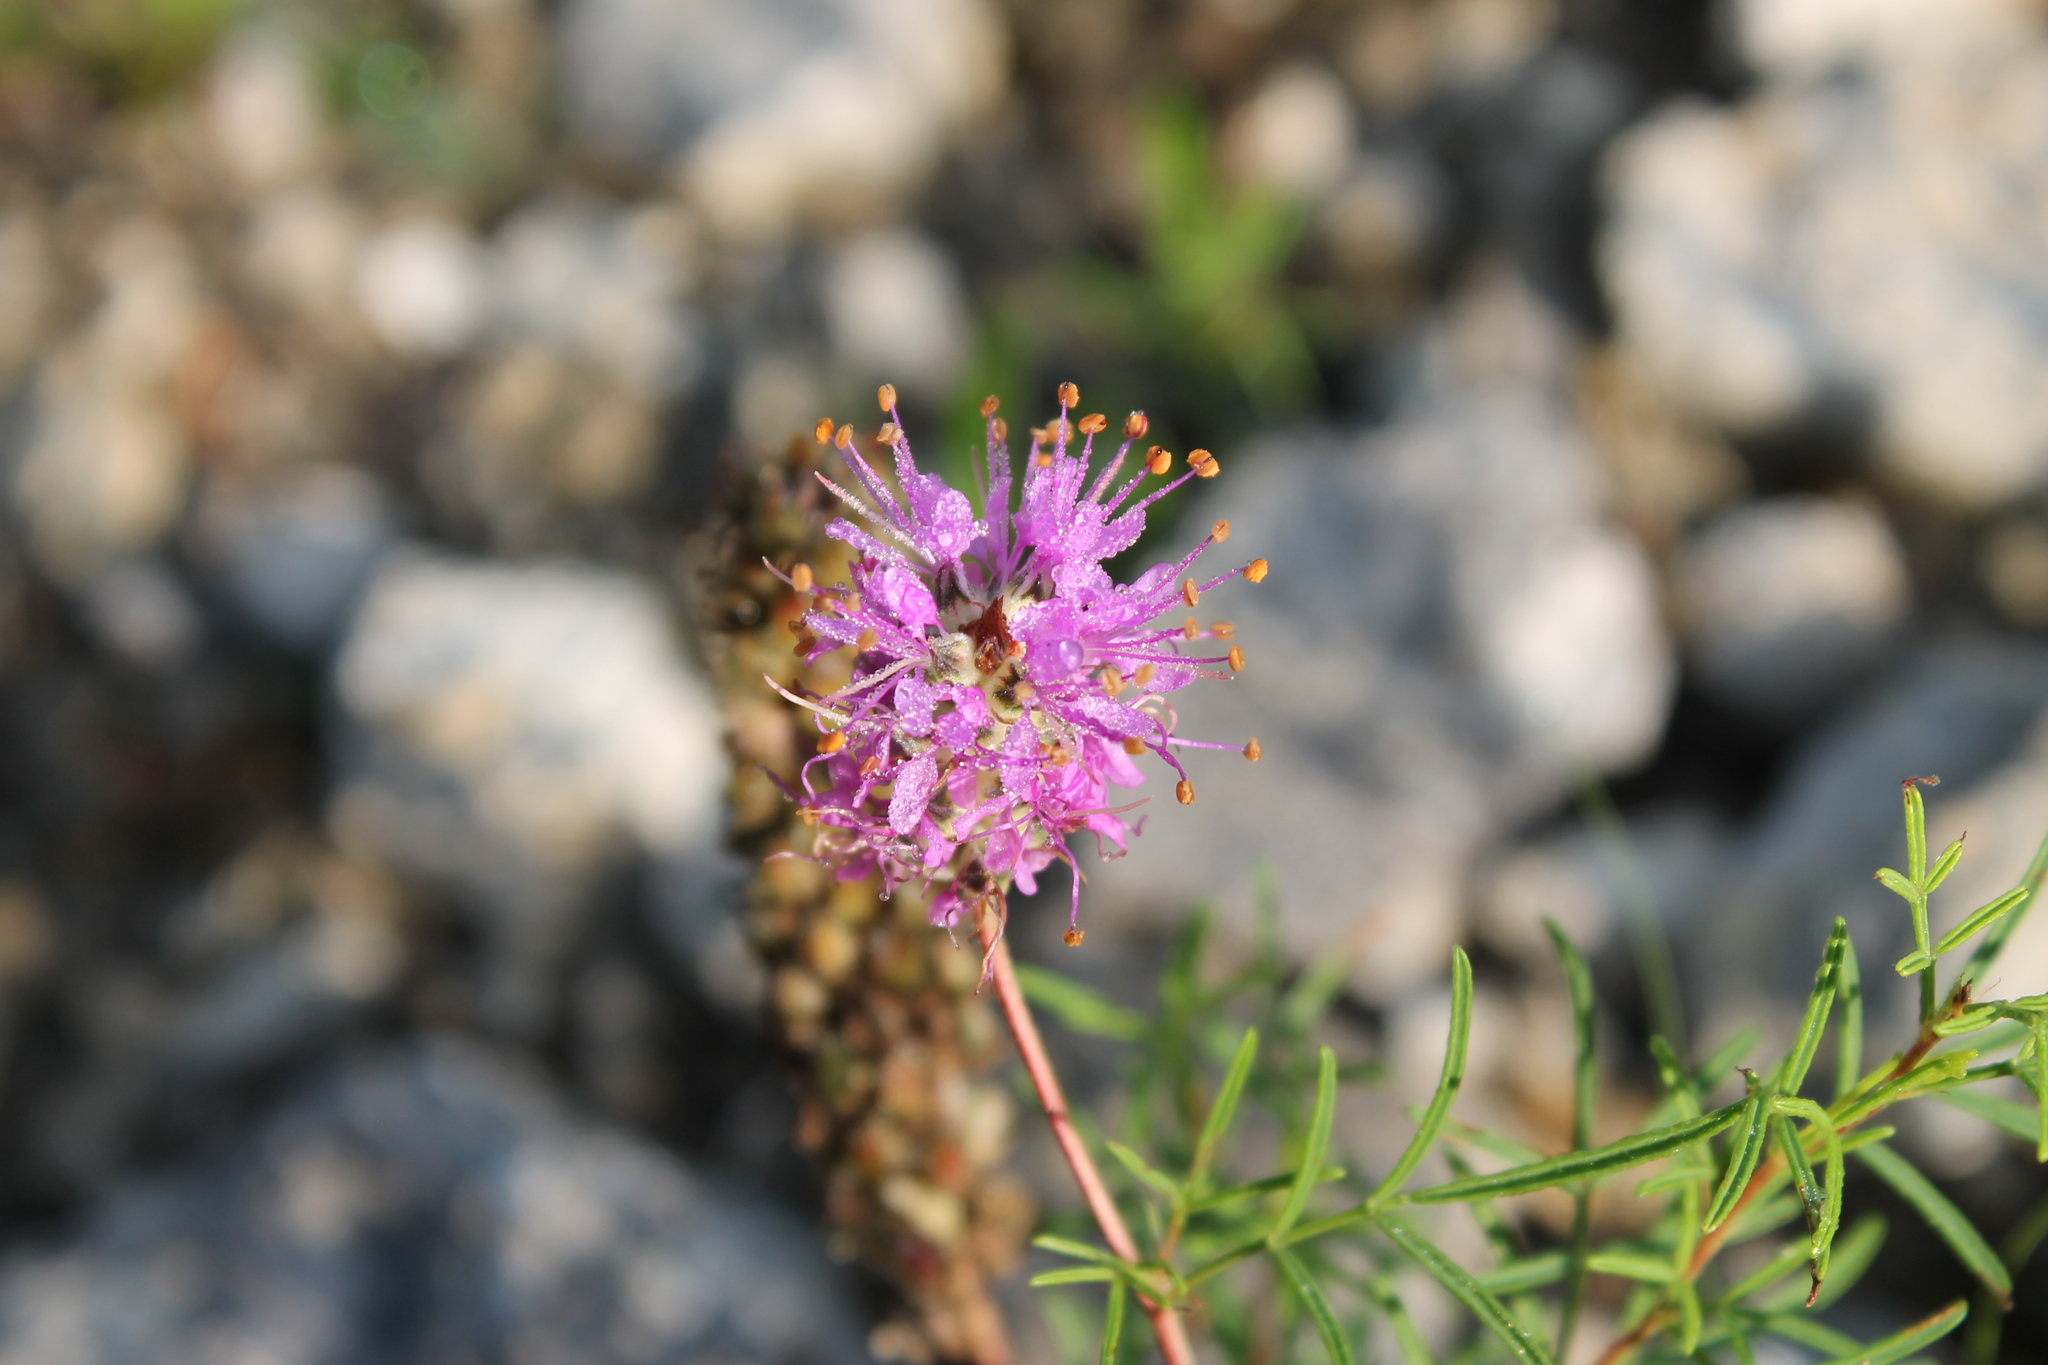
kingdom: Plantae
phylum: Tracheophyta
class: Magnoliopsida
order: Fabales
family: Fabaceae
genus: Dalea
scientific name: Dalea gattingeri
